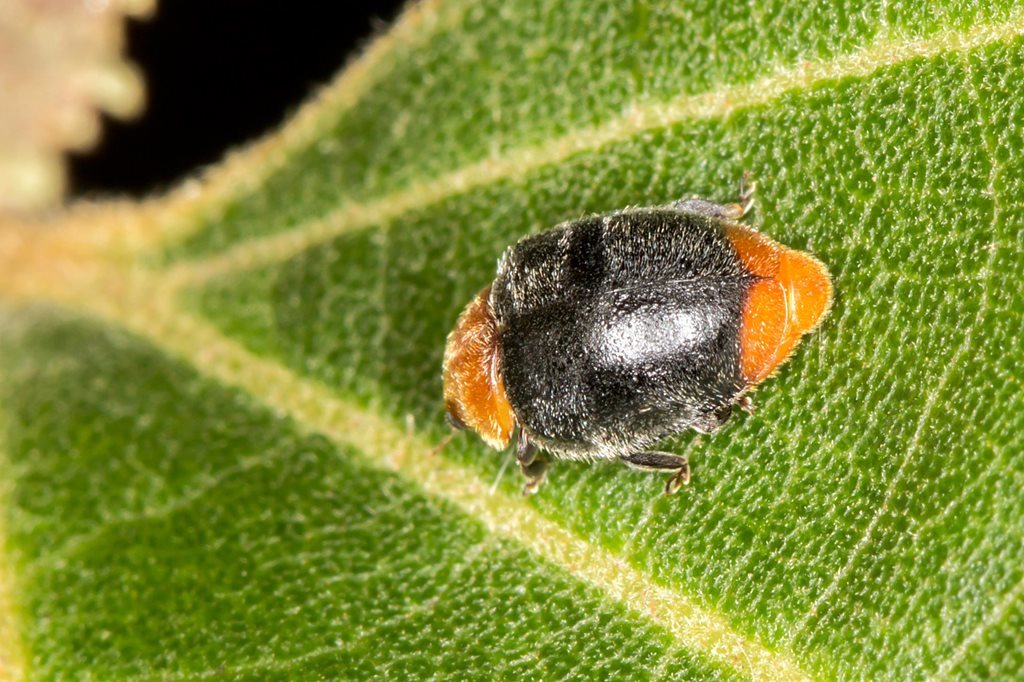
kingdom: Animalia
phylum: Arthropoda
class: Insecta
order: Coleoptera
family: Coccinellidae
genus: Cryptolaemus
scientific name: Cryptolaemus montrouzieri
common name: Mealybug destroyer
